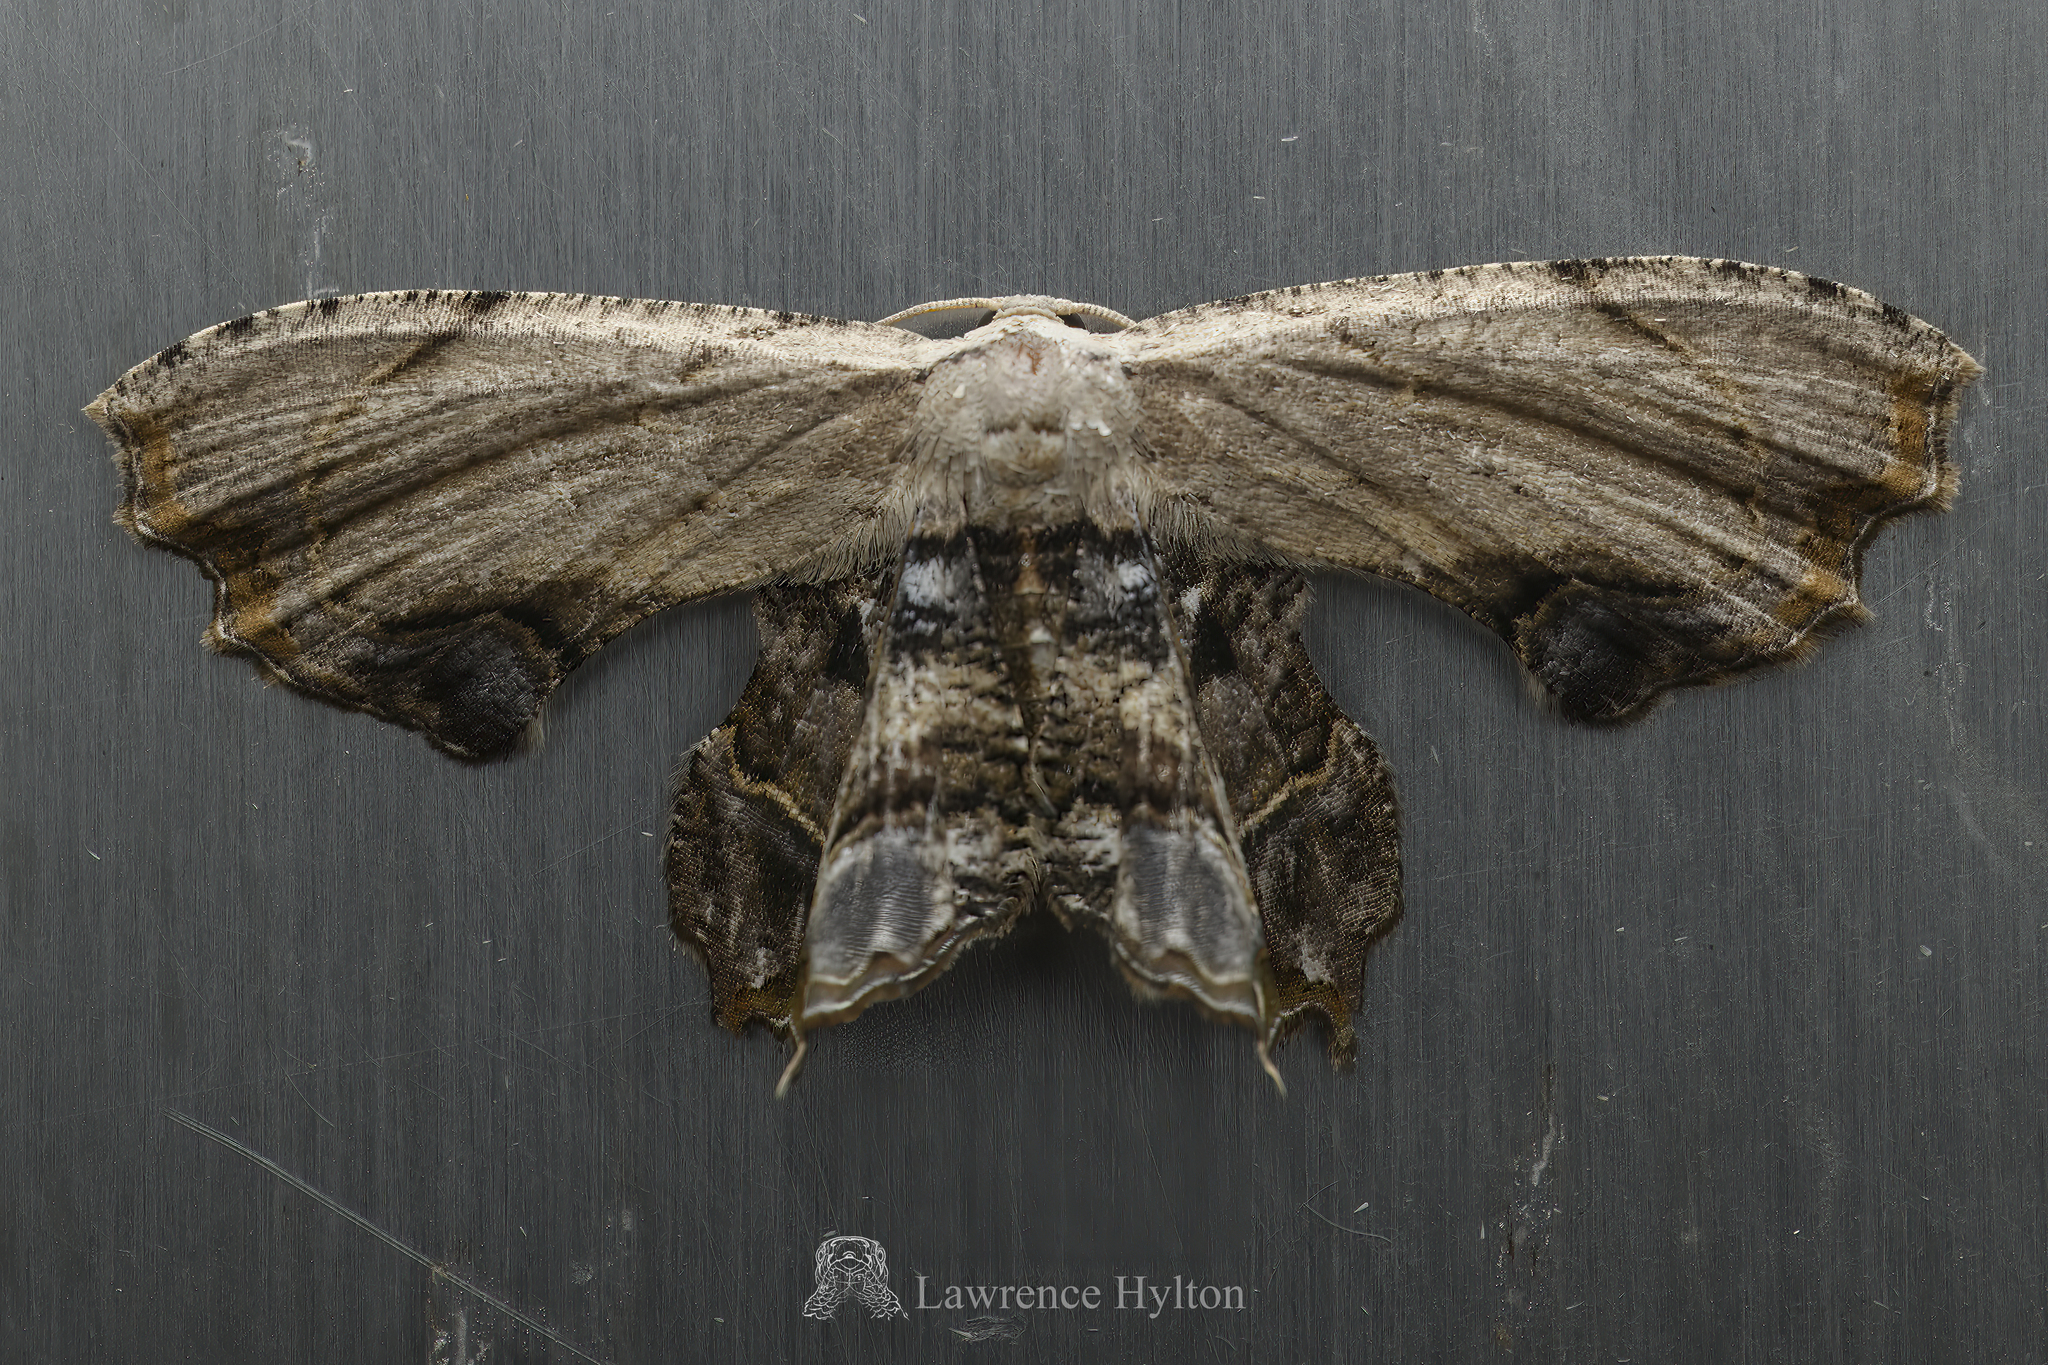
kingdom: Animalia
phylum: Arthropoda
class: Insecta
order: Lepidoptera
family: Uraniidae
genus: Dysaethria
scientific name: Dysaethria erasaria
